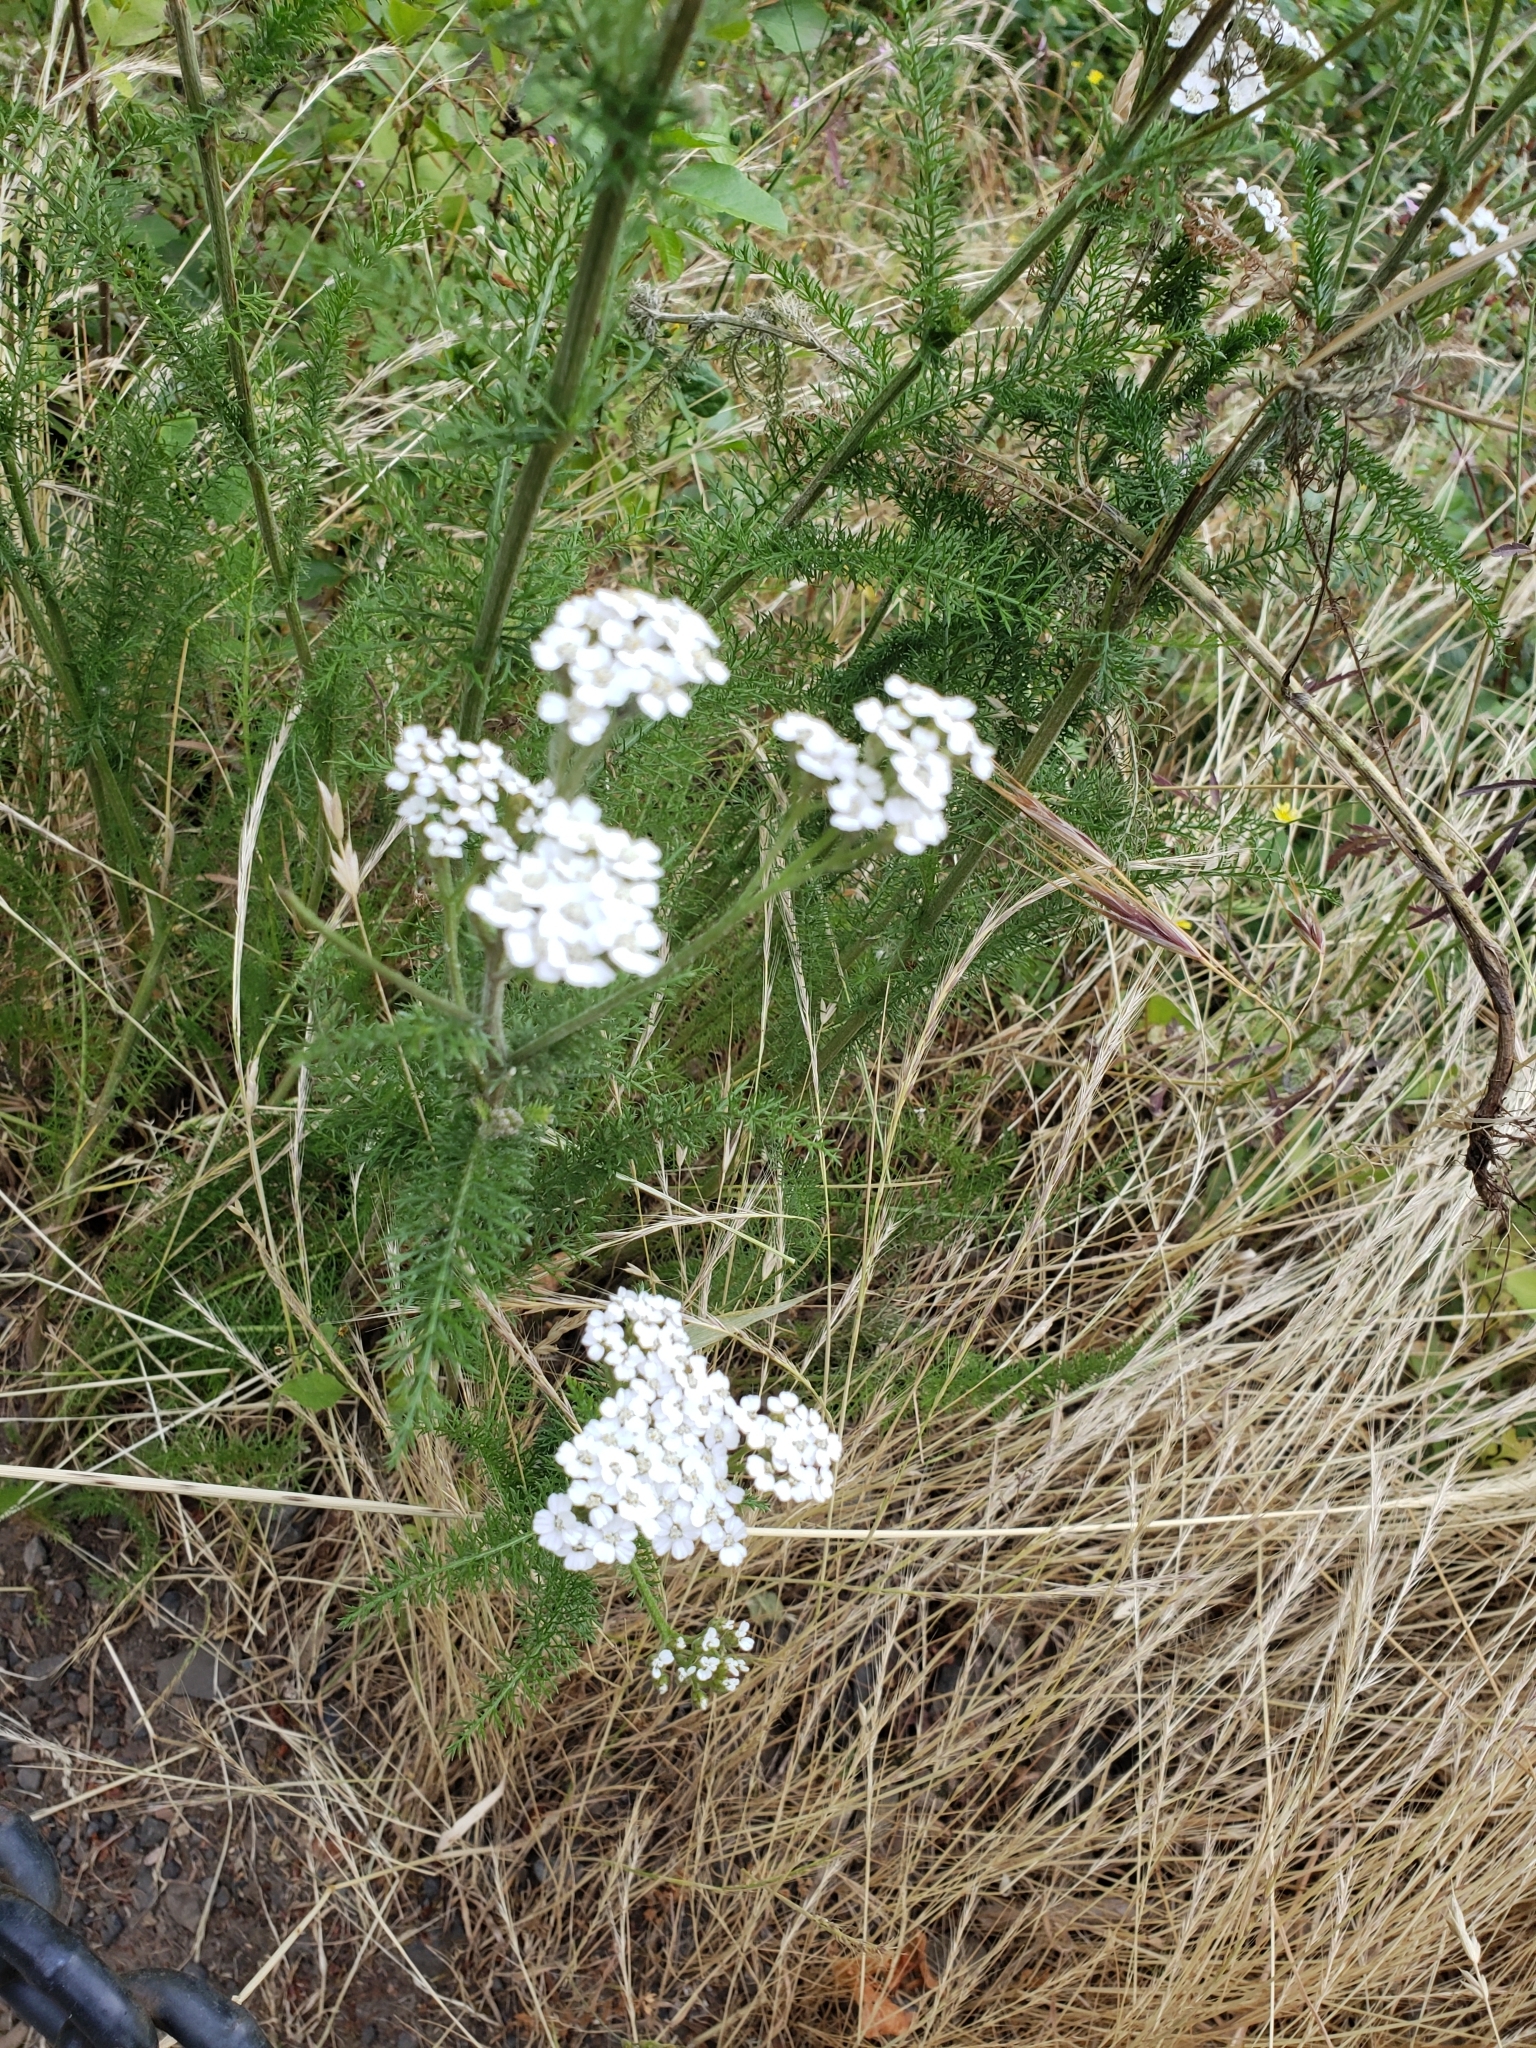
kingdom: Plantae
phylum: Tracheophyta
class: Magnoliopsida
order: Asterales
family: Asteraceae
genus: Achillea
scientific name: Achillea millefolium
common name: Yarrow
